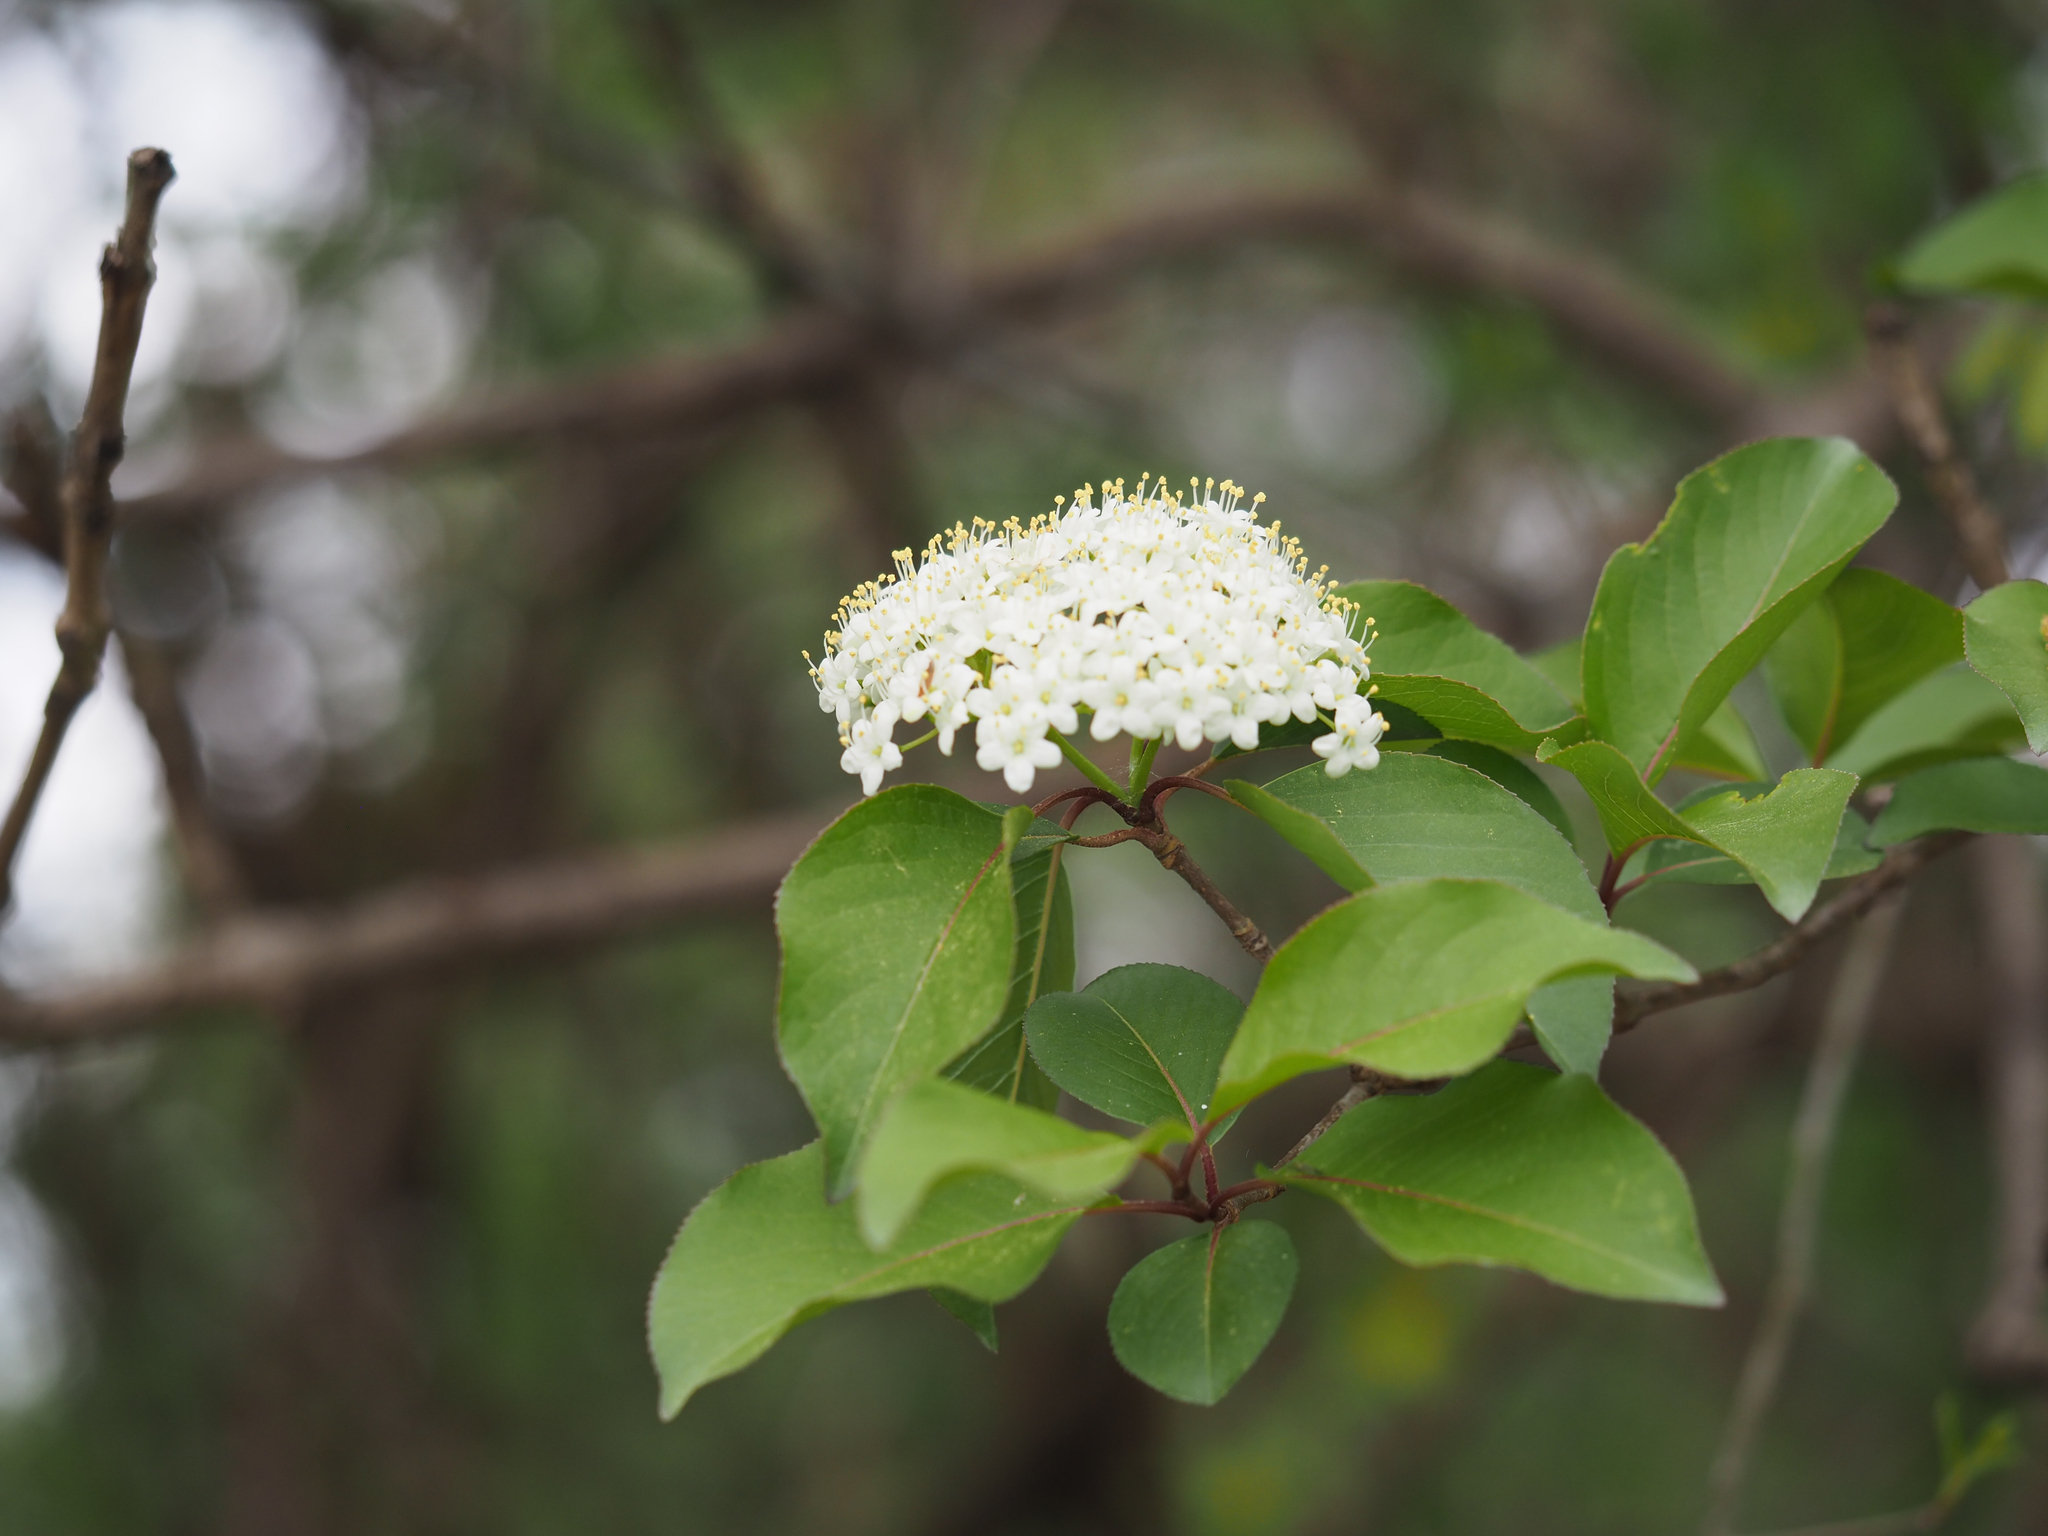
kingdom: Plantae
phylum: Tracheophyta
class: Magnoliopsida
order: Dipsacales
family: Viburnaceae
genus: Viburnum
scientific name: Viburnum prunifolium
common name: Black haw
